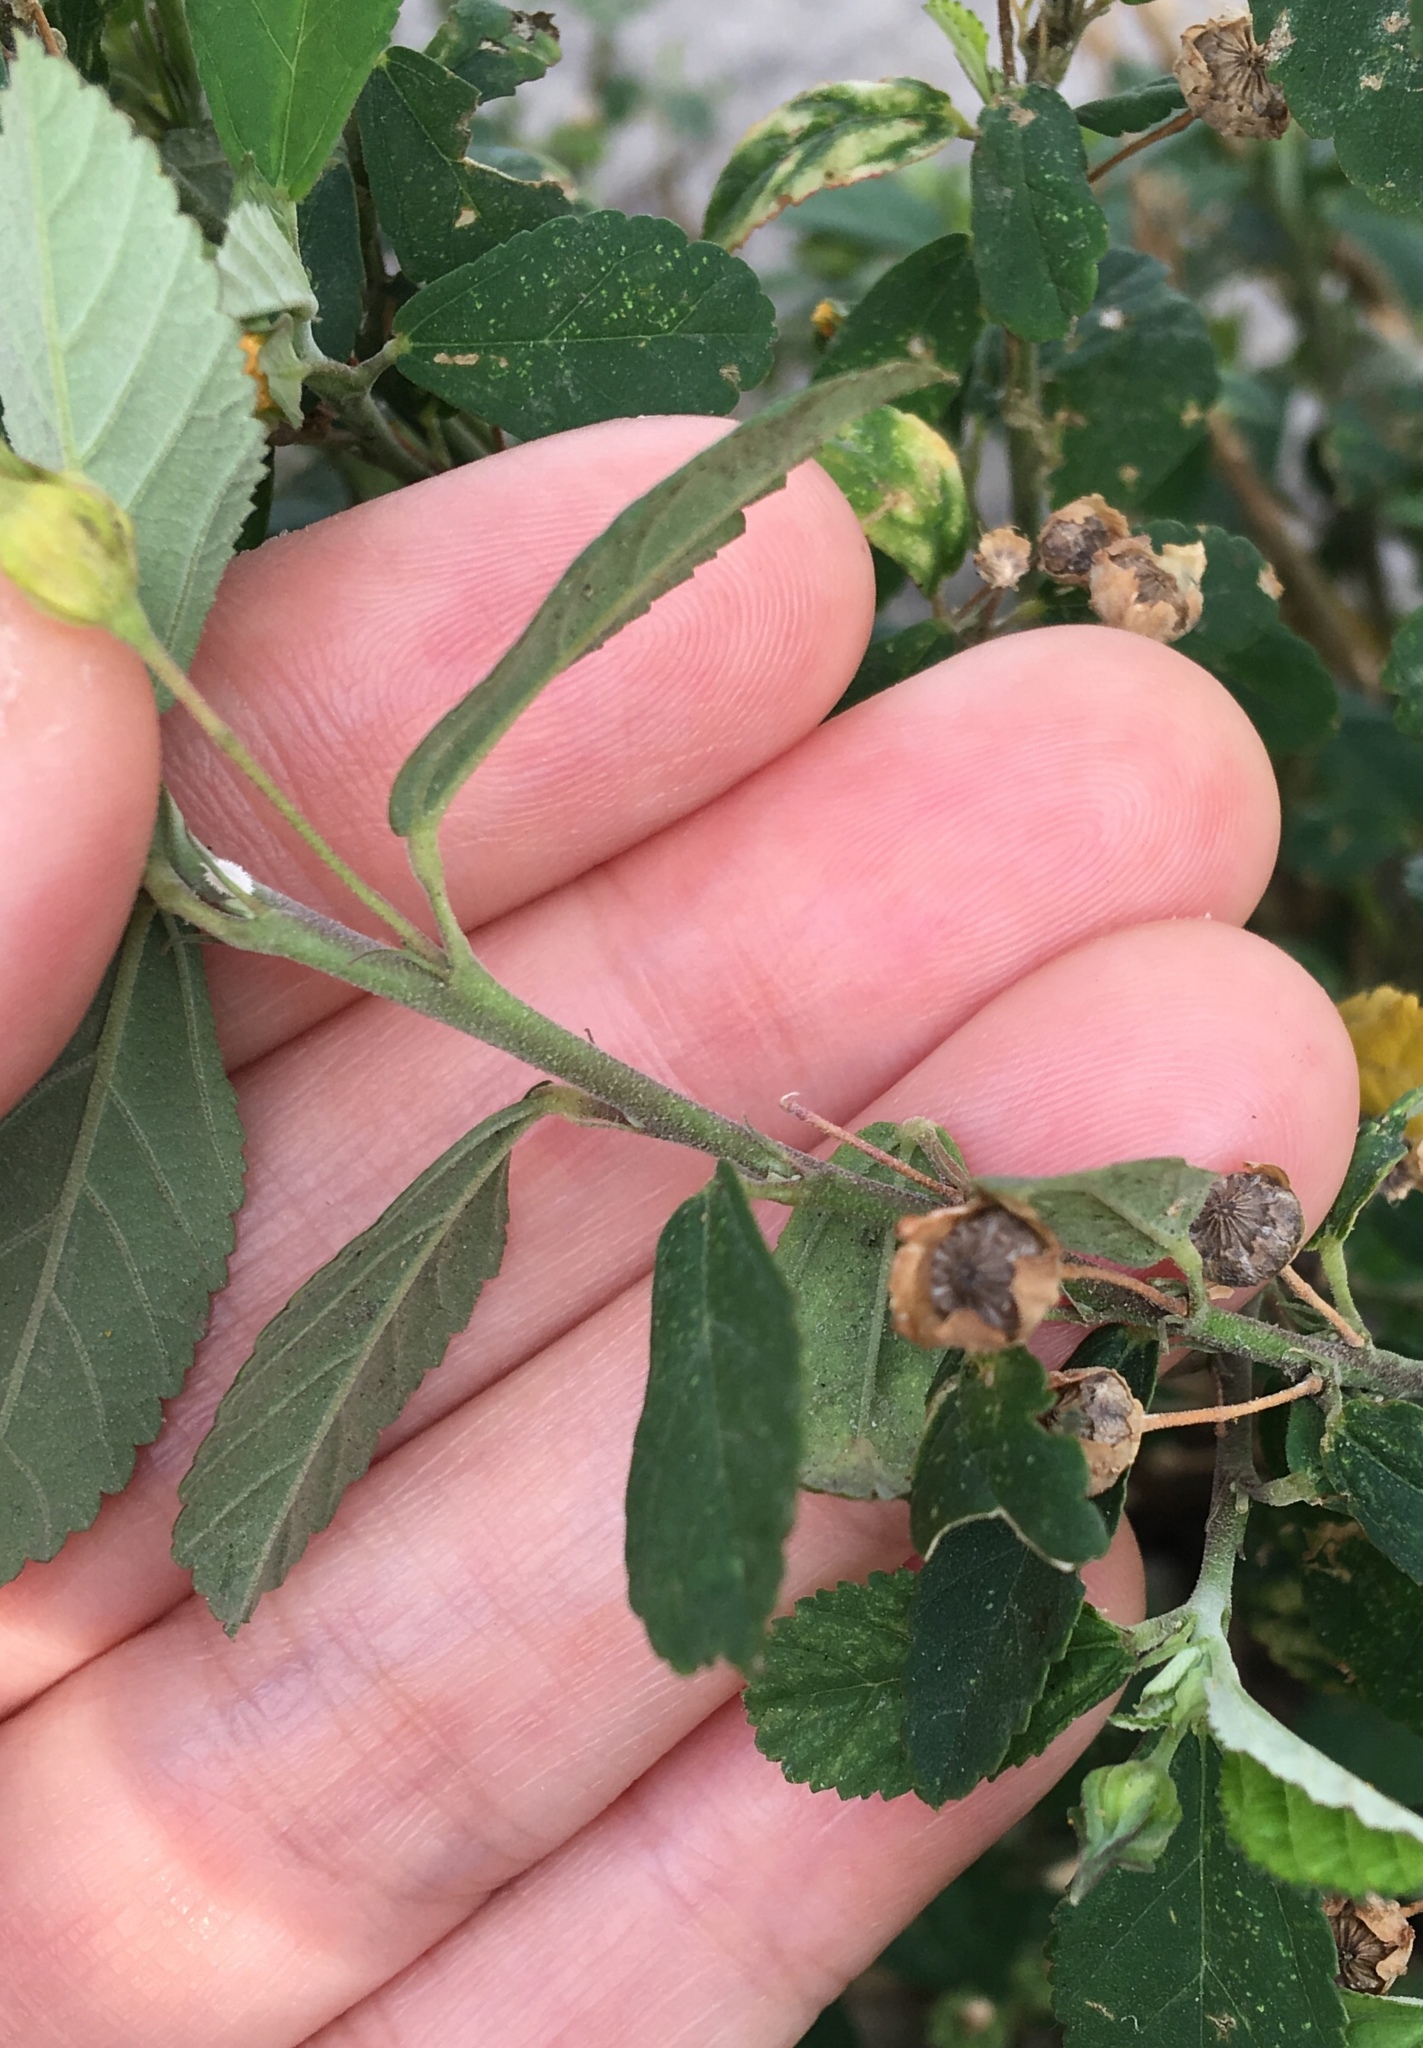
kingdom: Plantae
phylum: Tracheophyta
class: Magnoliopsida
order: Malvales
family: Malvaceae
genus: Sida
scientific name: Sida rhombifolia
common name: Queensland-hemp
